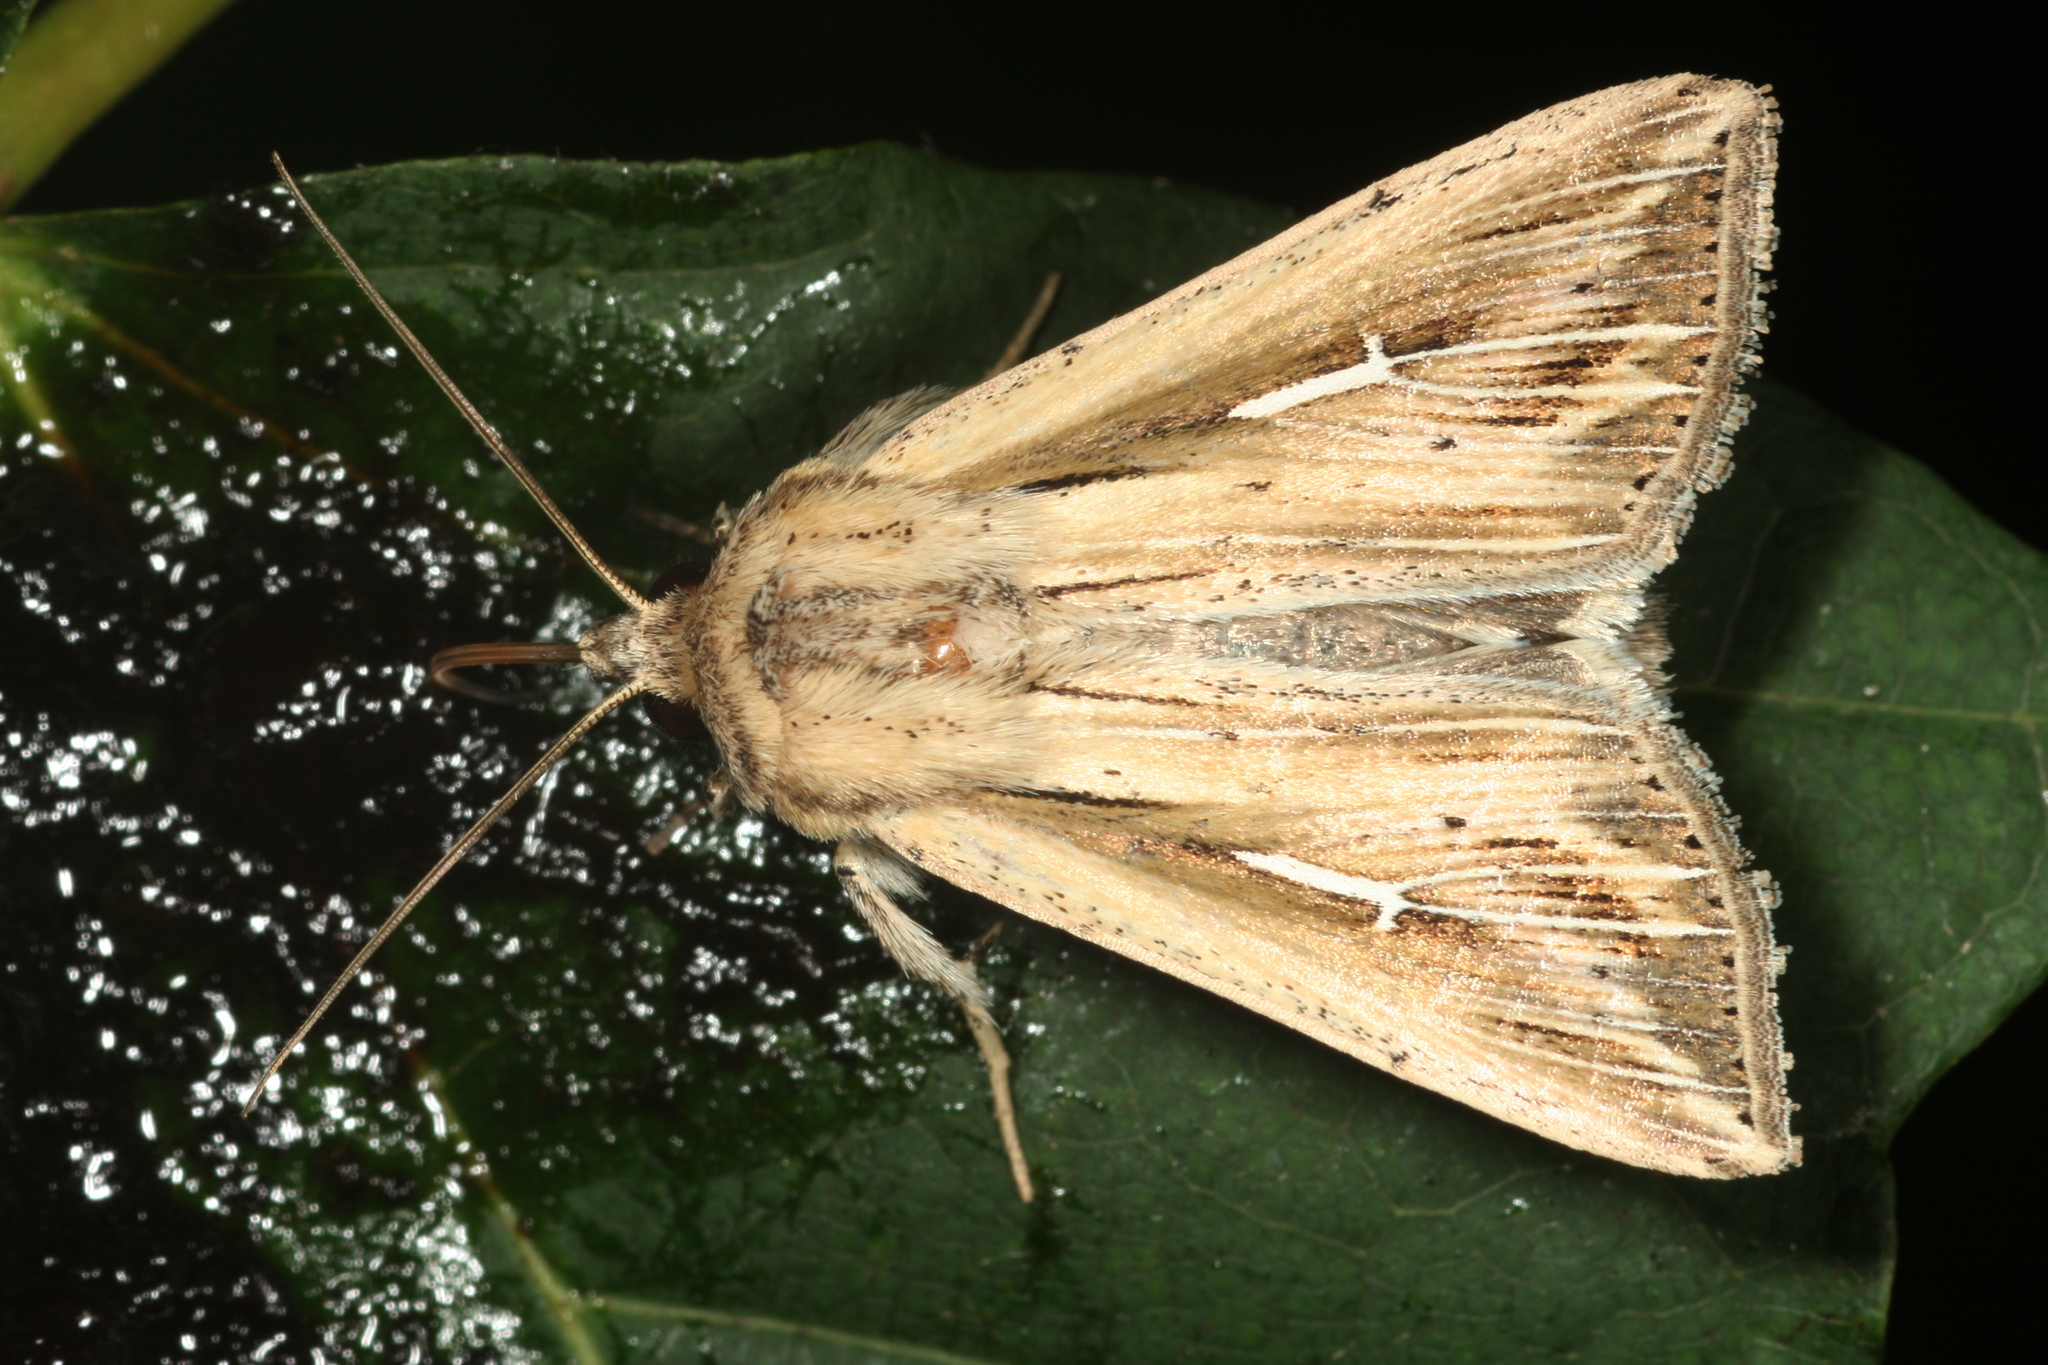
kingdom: Animalia
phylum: Arthropoda
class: Insecta
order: Lepidoptera
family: Noctuidae
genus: Mythimna
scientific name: Mythimna l-album
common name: L-album wainscot
